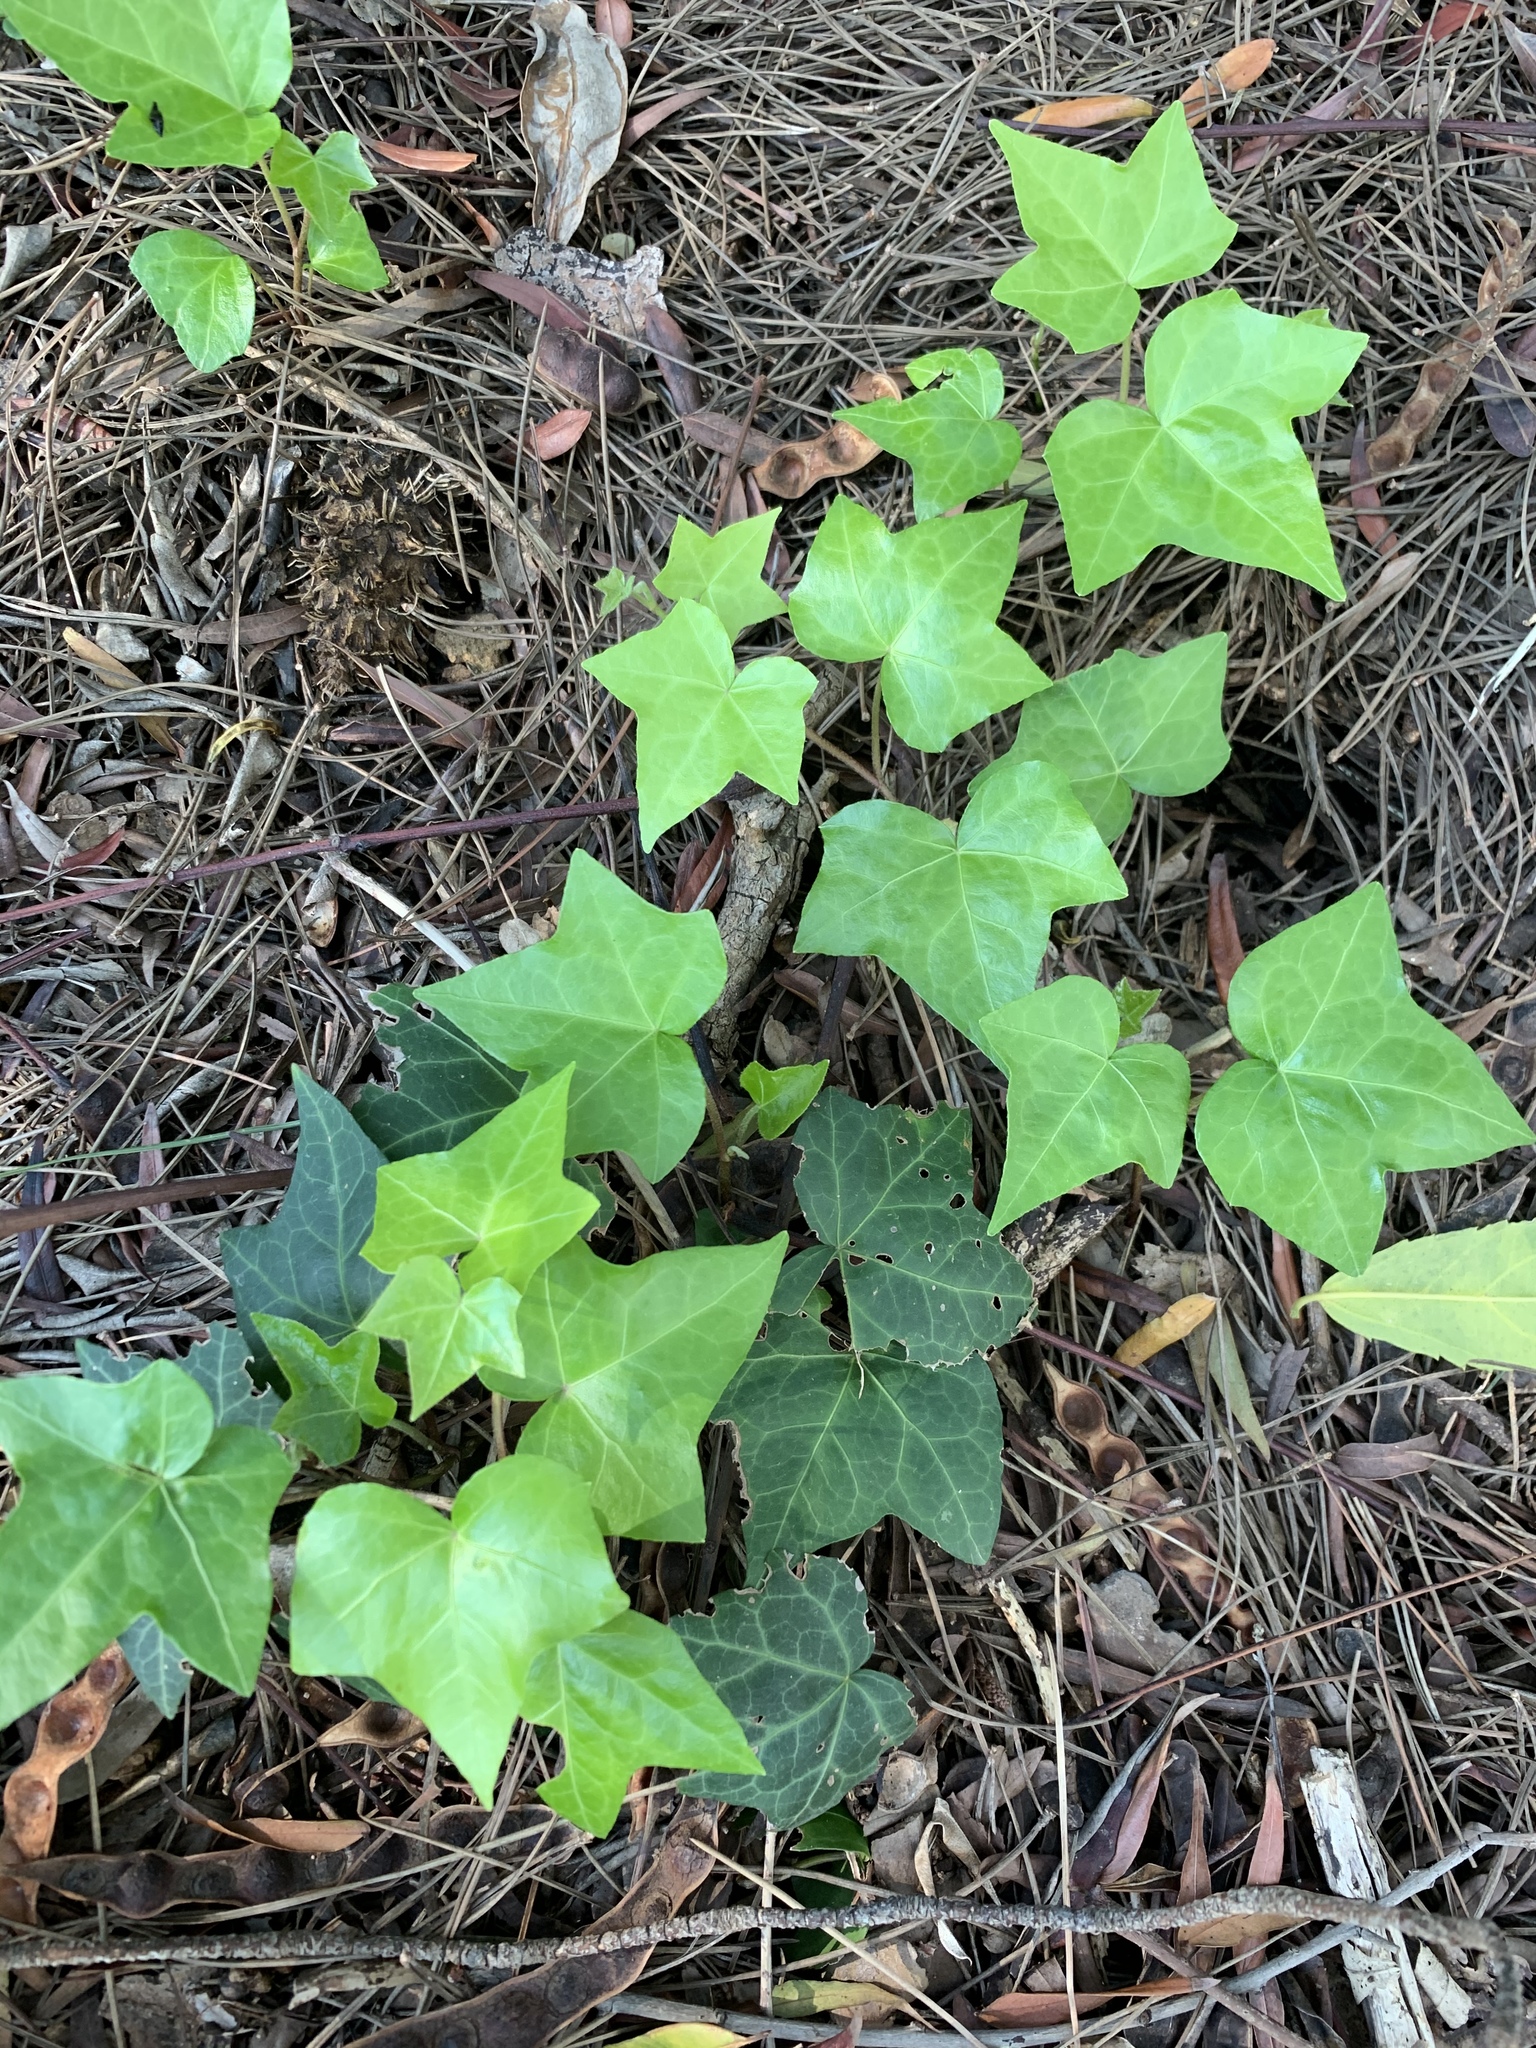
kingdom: Plantae
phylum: Tracheophyta
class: Magnoliopsida
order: Apiales
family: Araliaceae
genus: Hedera
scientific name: Hedera helix
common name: Ivy
